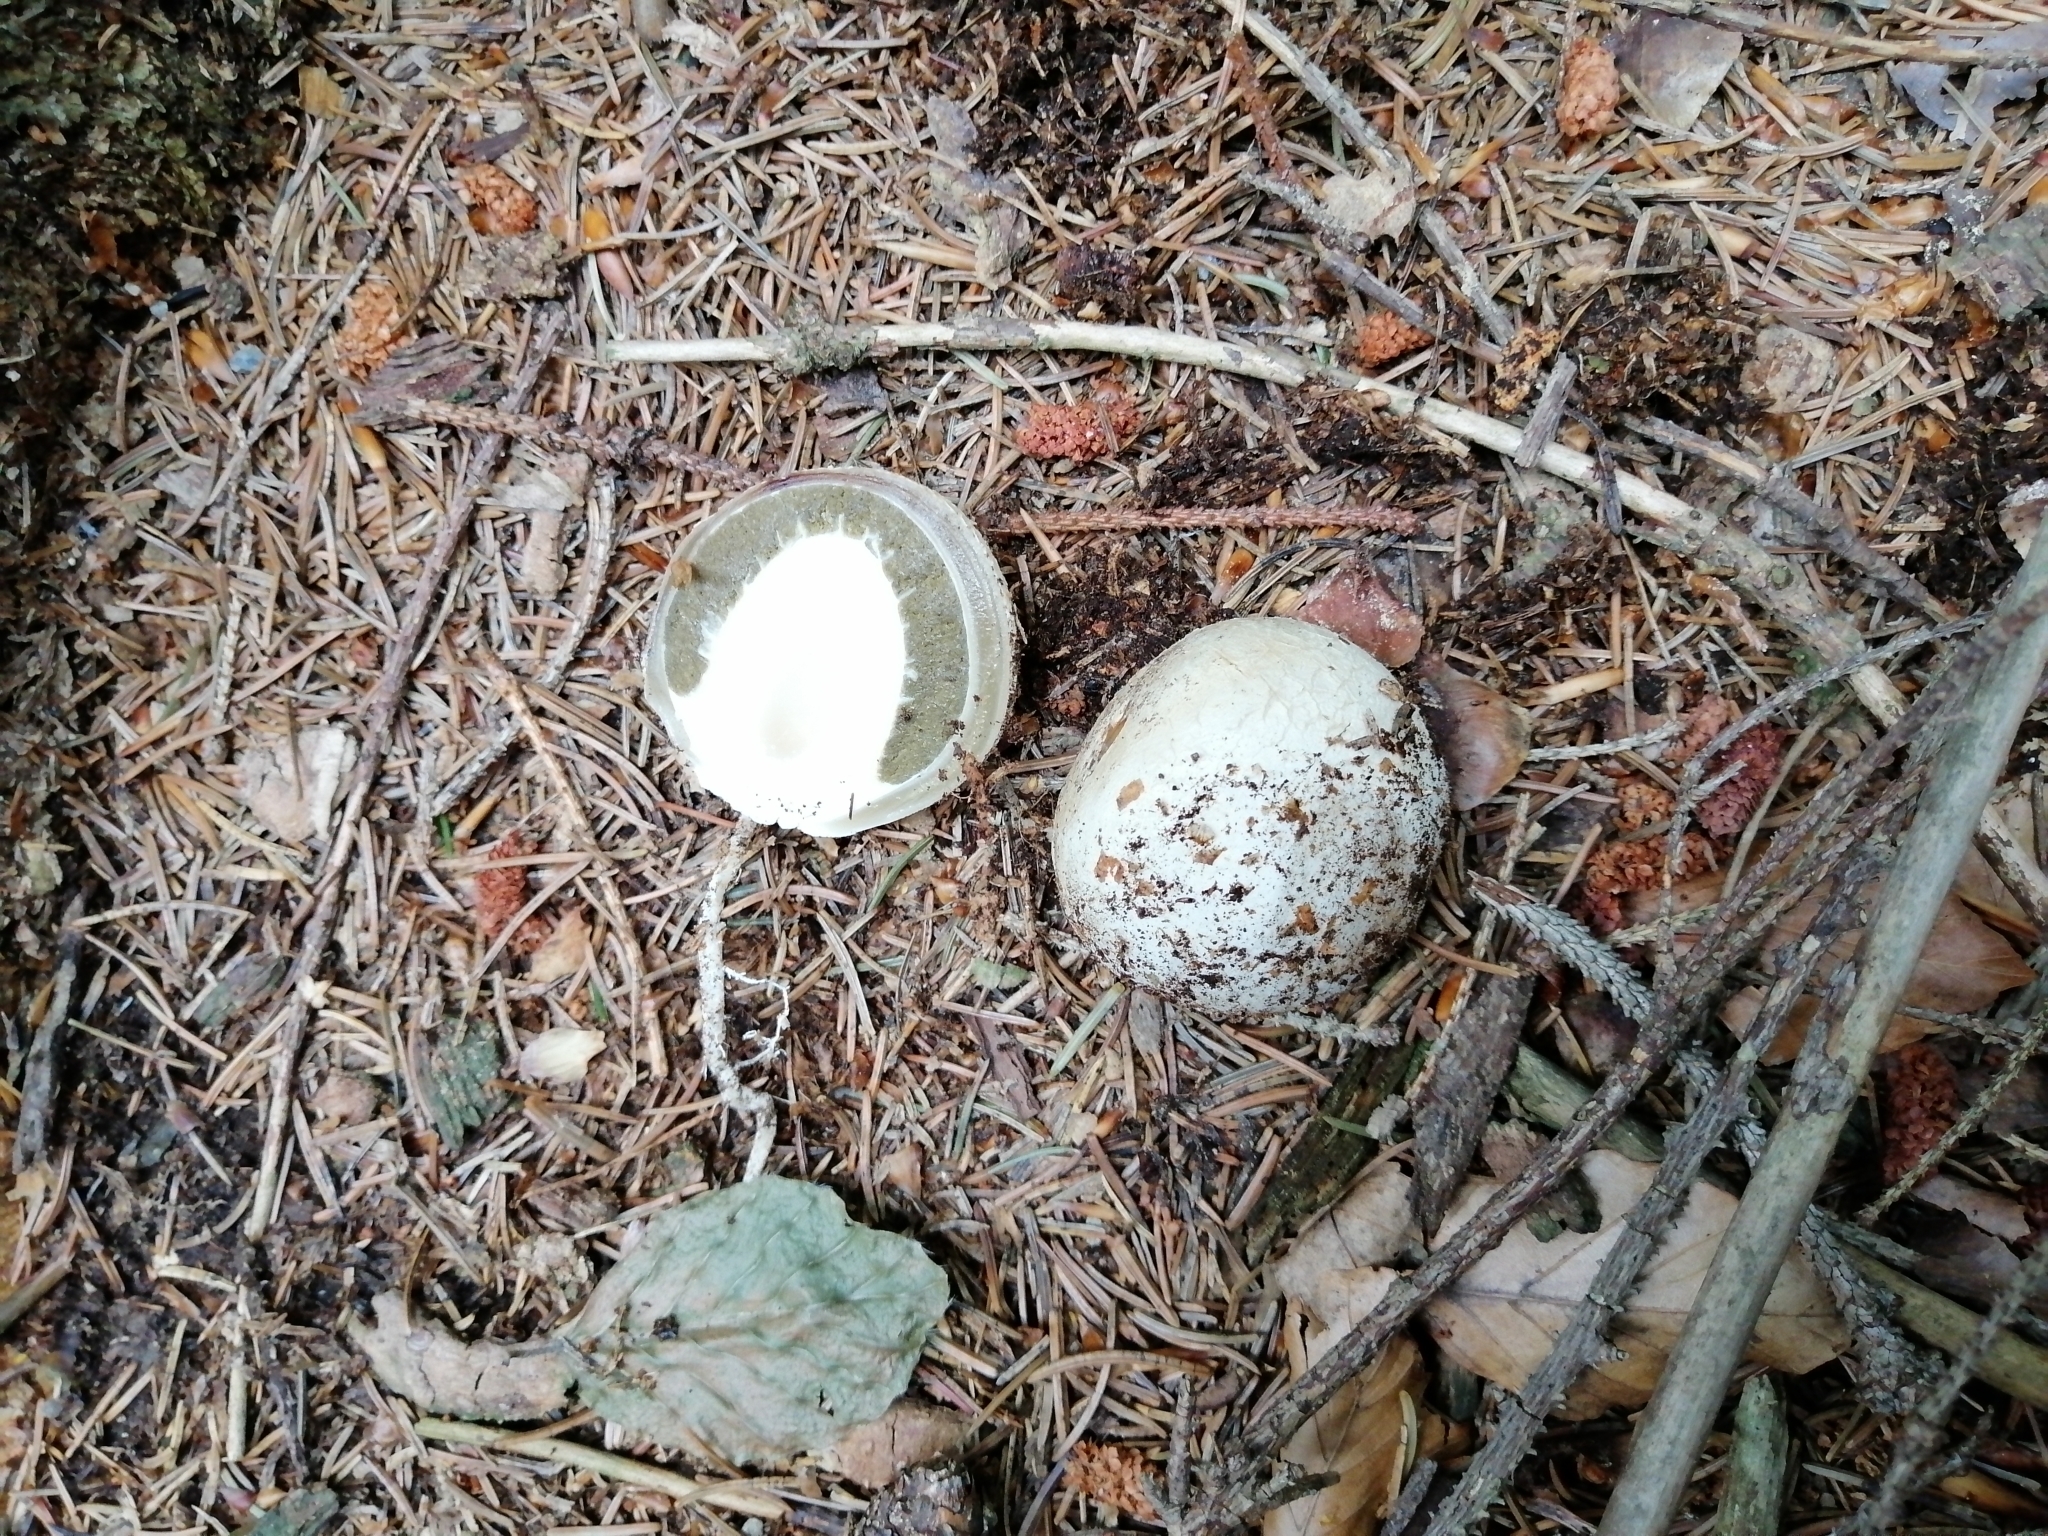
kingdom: Fungi
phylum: Basidiomycota
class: Agaricomycetes
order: Phallales
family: Phallaceae
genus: Phallus
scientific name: Phallus impudicus
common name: Common stinkhorn
